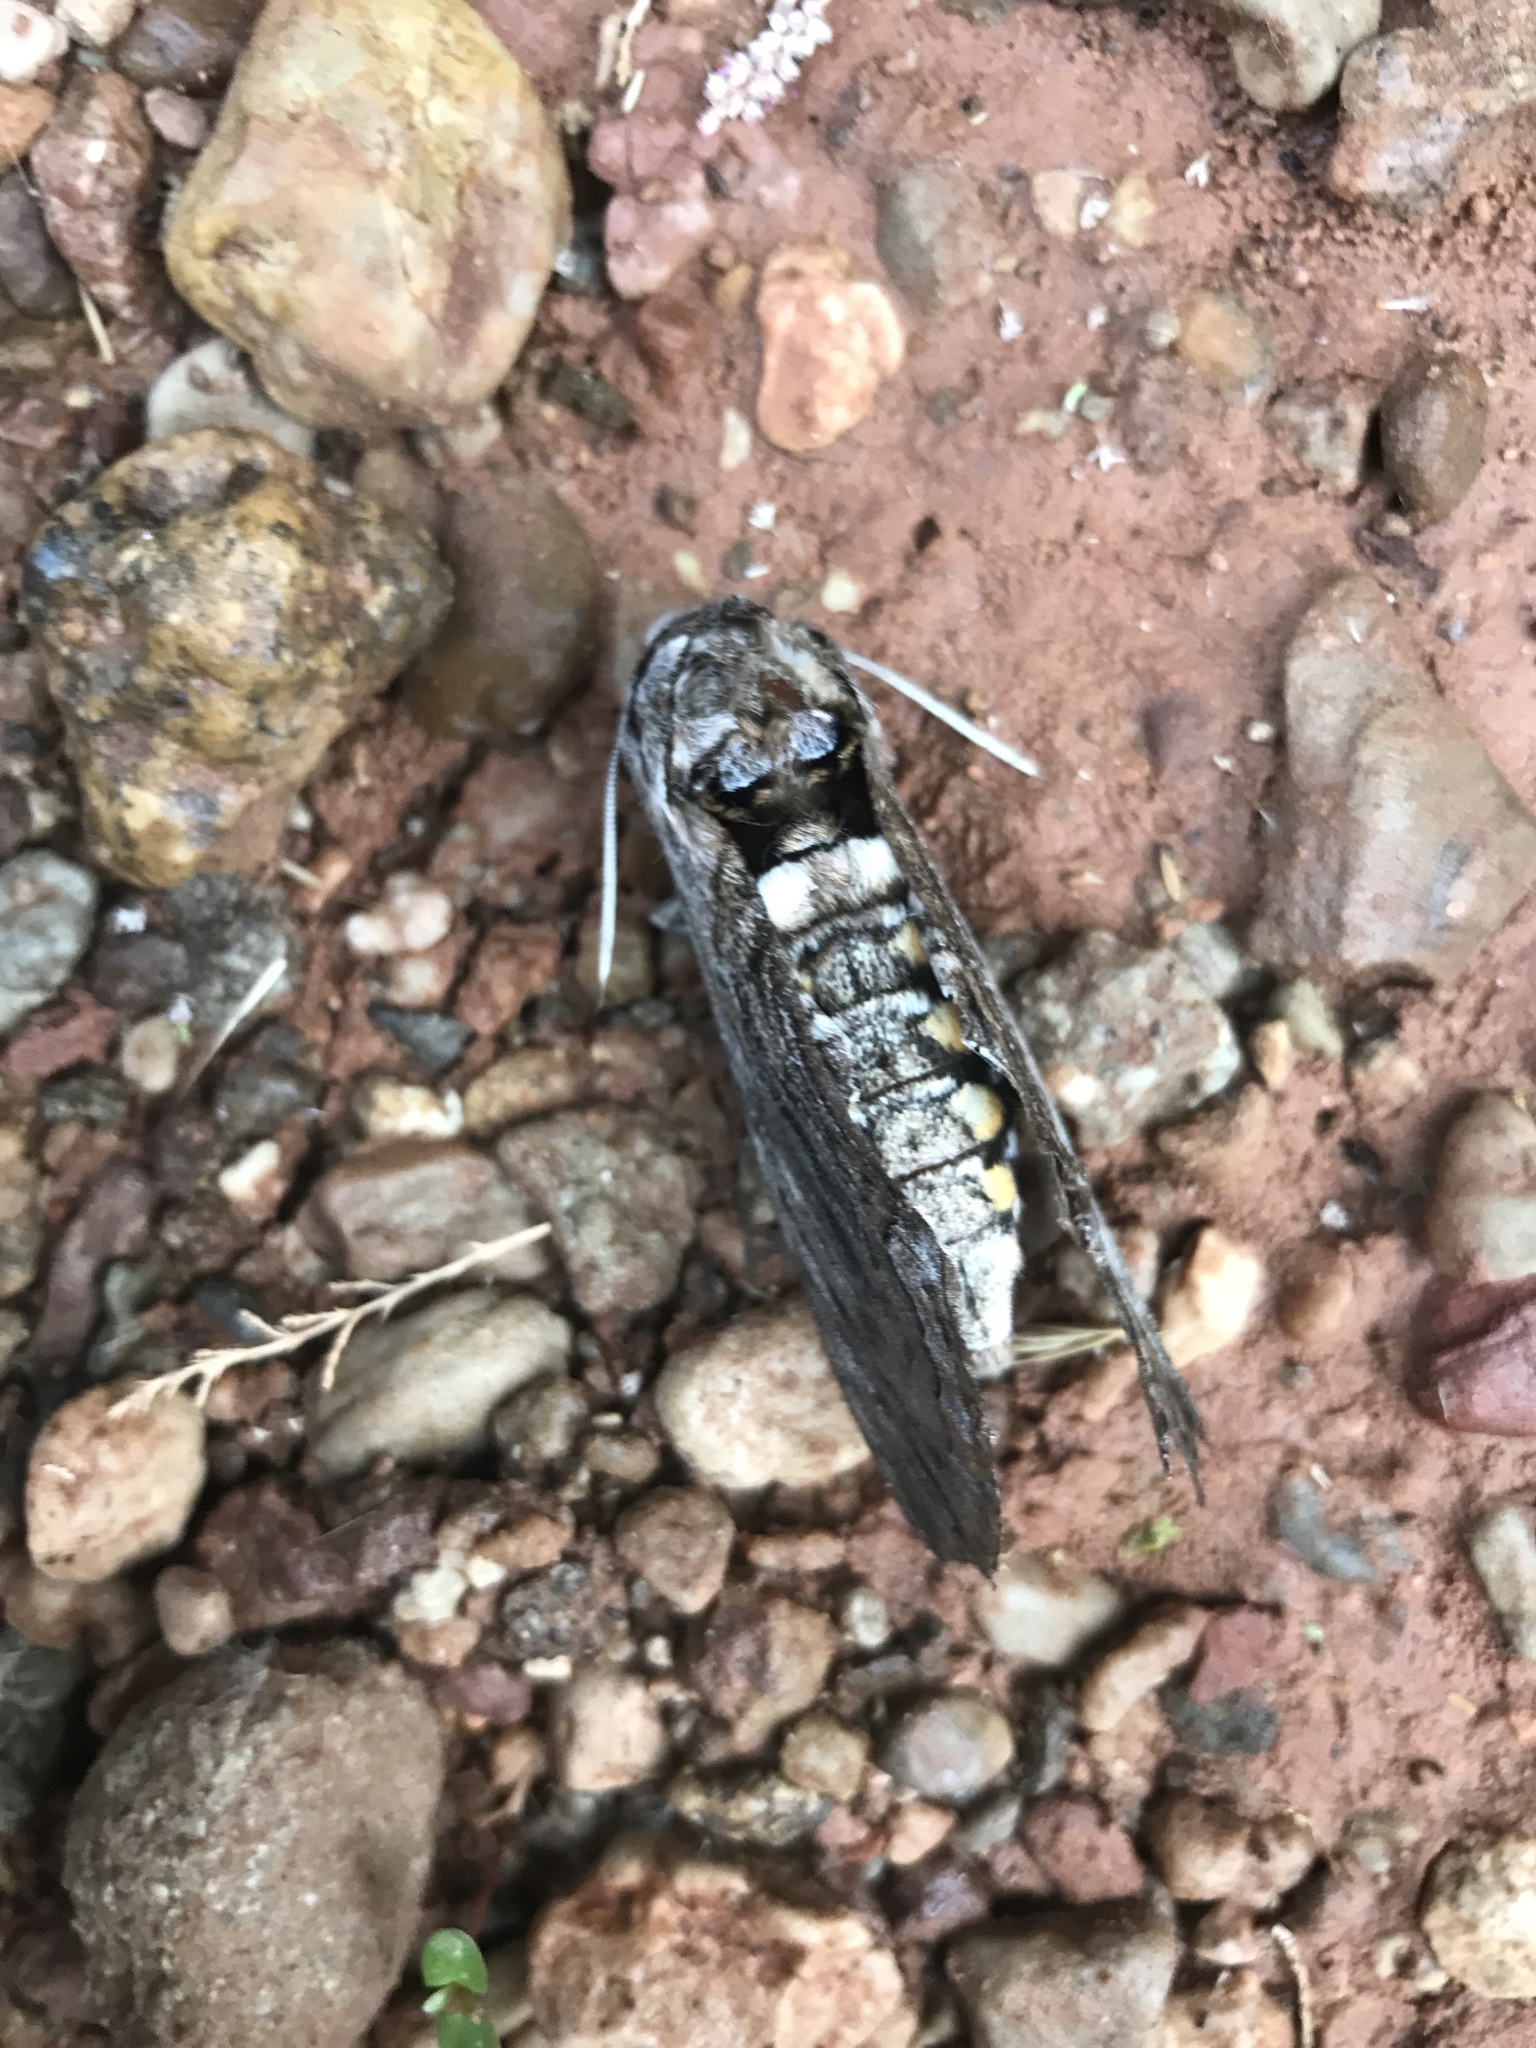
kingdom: Animalia
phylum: Arthropoda
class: Insecta
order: Lepidoptera
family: Sphingidae
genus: Manduca
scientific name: Manduca quinquemaculatus
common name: Five-spotted hawk-moth
